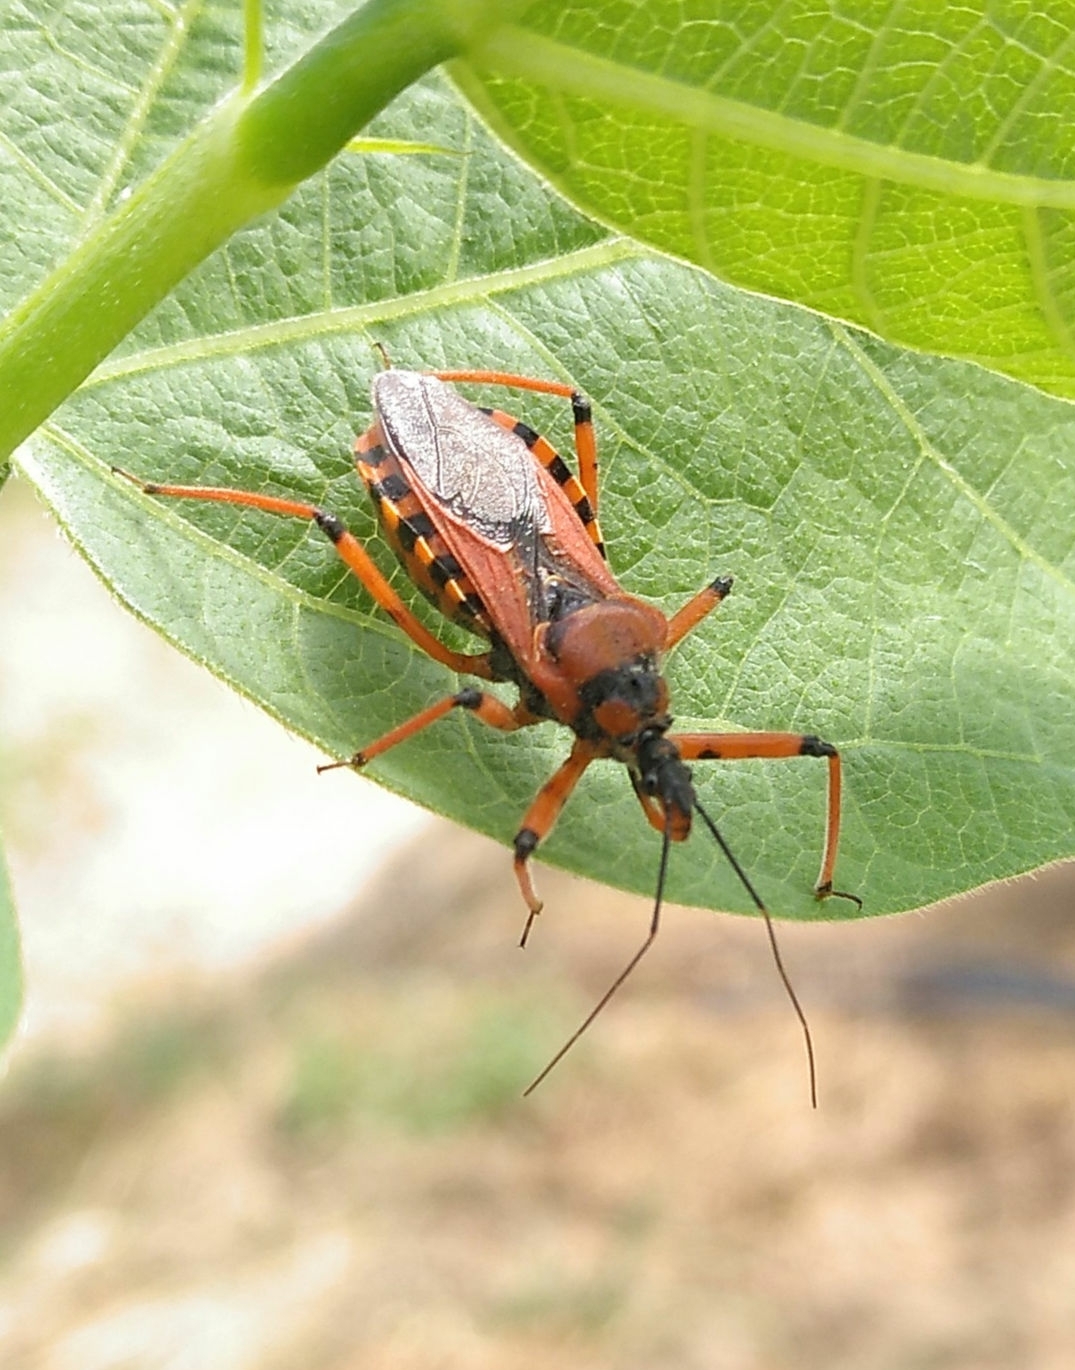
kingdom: Animalia
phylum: Arthropoda
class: Insecta
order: Hemiptera
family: Reduviidae
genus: Rhynocoris
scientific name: Rhynocoris iracundus
